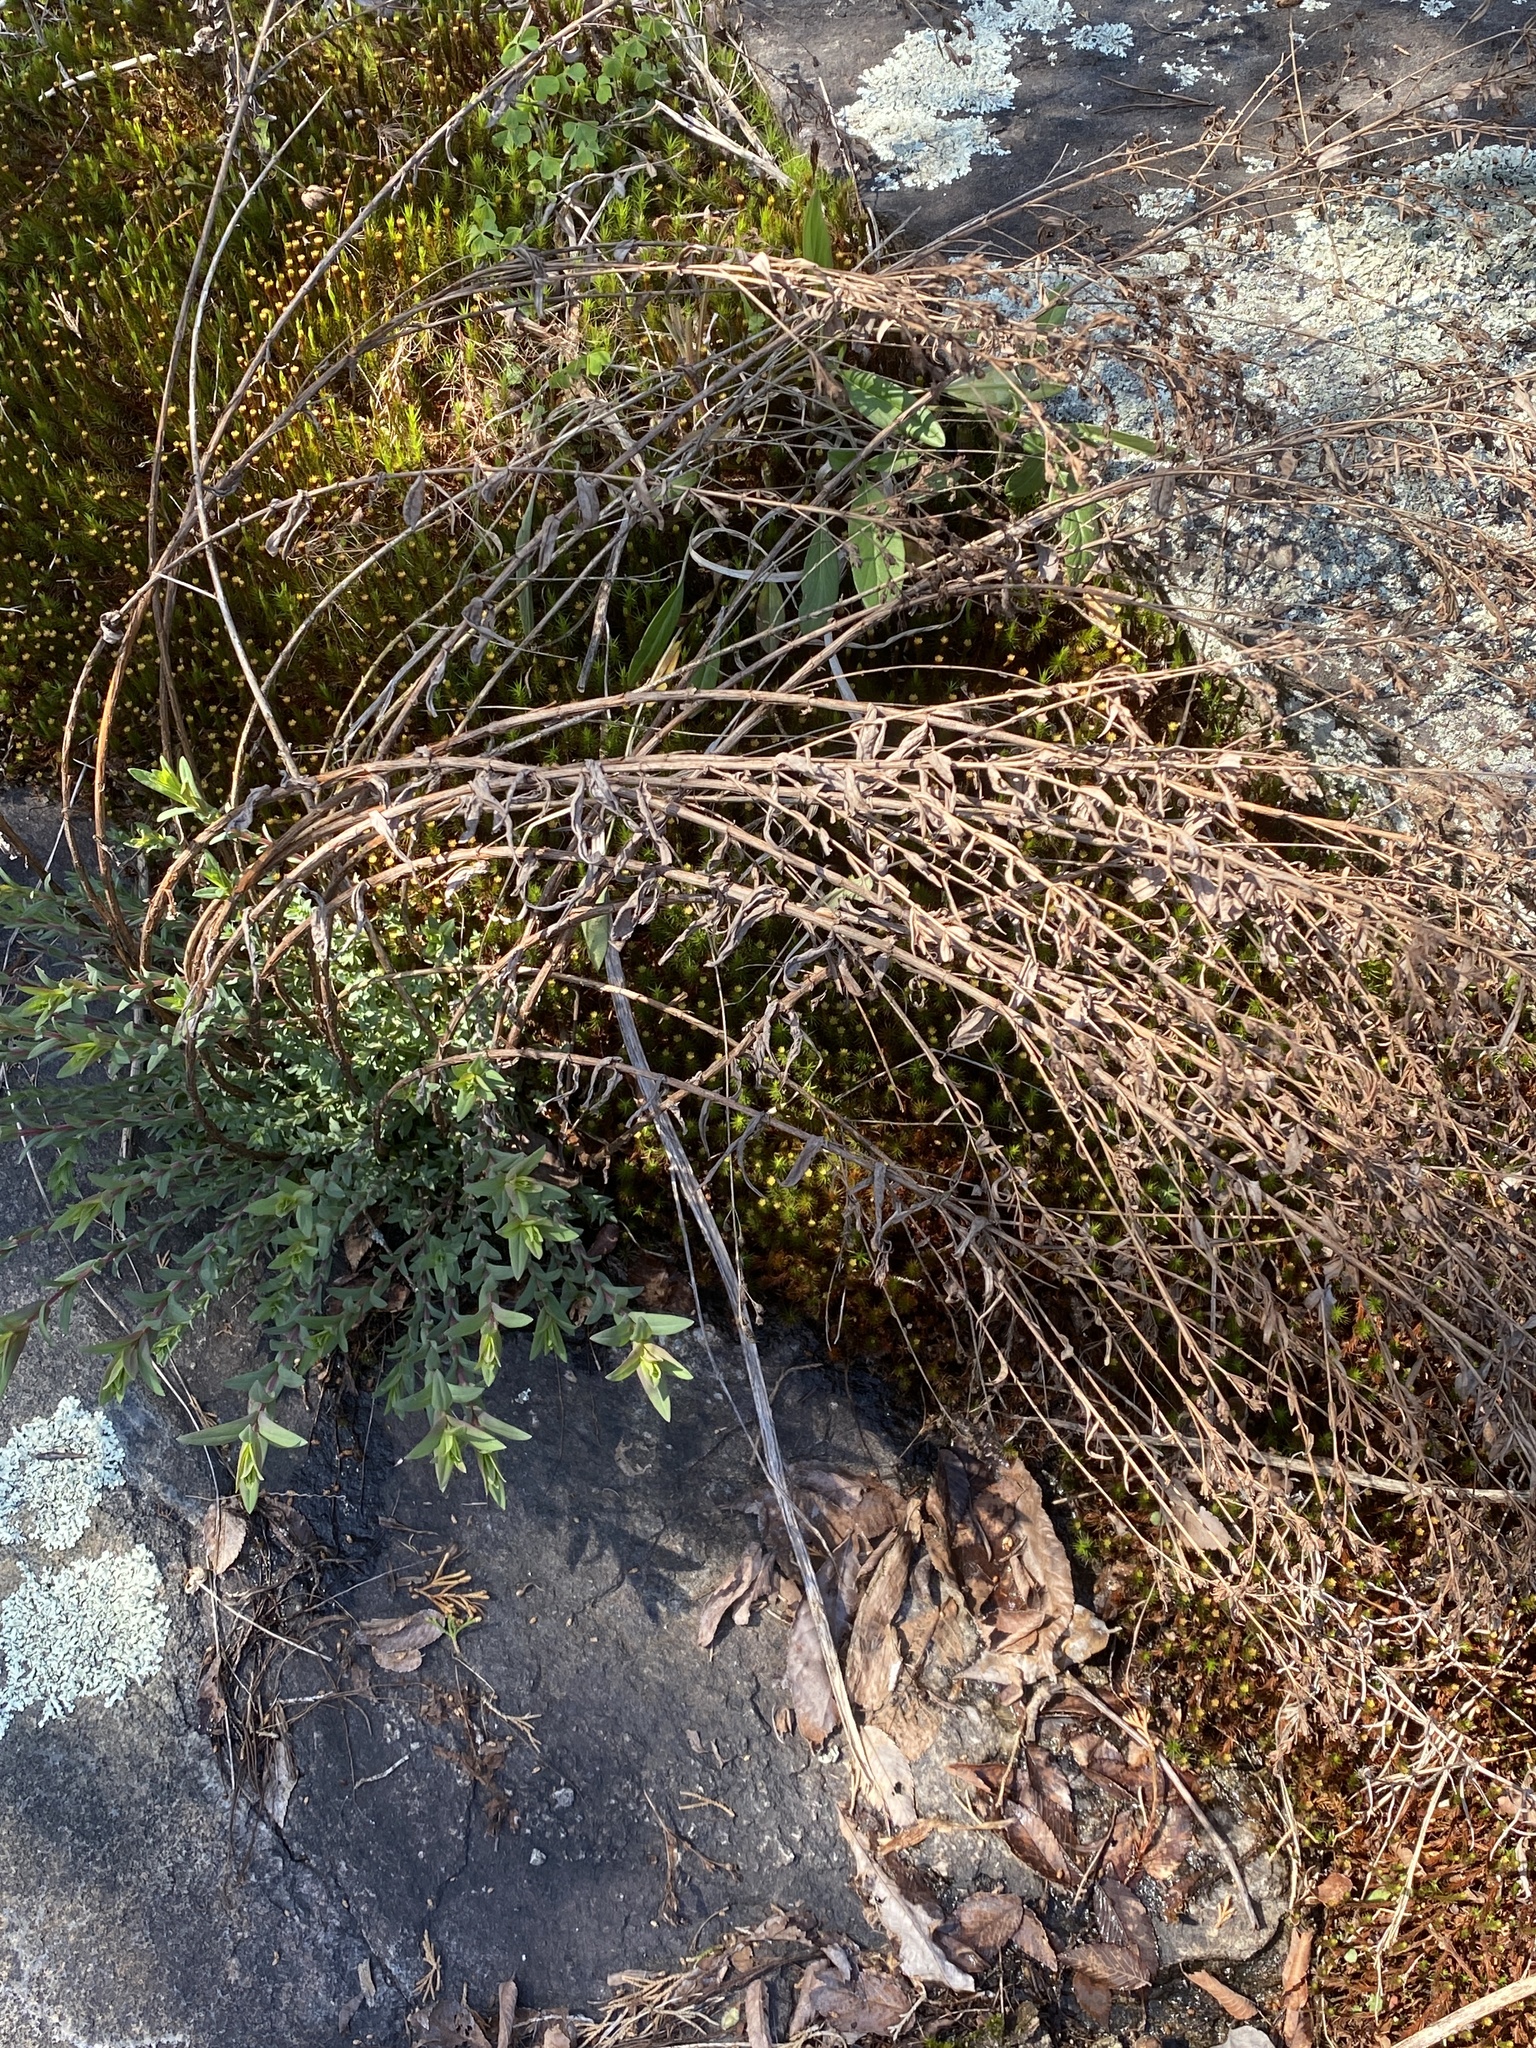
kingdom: Plantae
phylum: Tracheophyta
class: Magnoliopsida
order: Malpighiales
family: Hypericaceae
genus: Hypericum
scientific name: Hypericum radfordiorum
